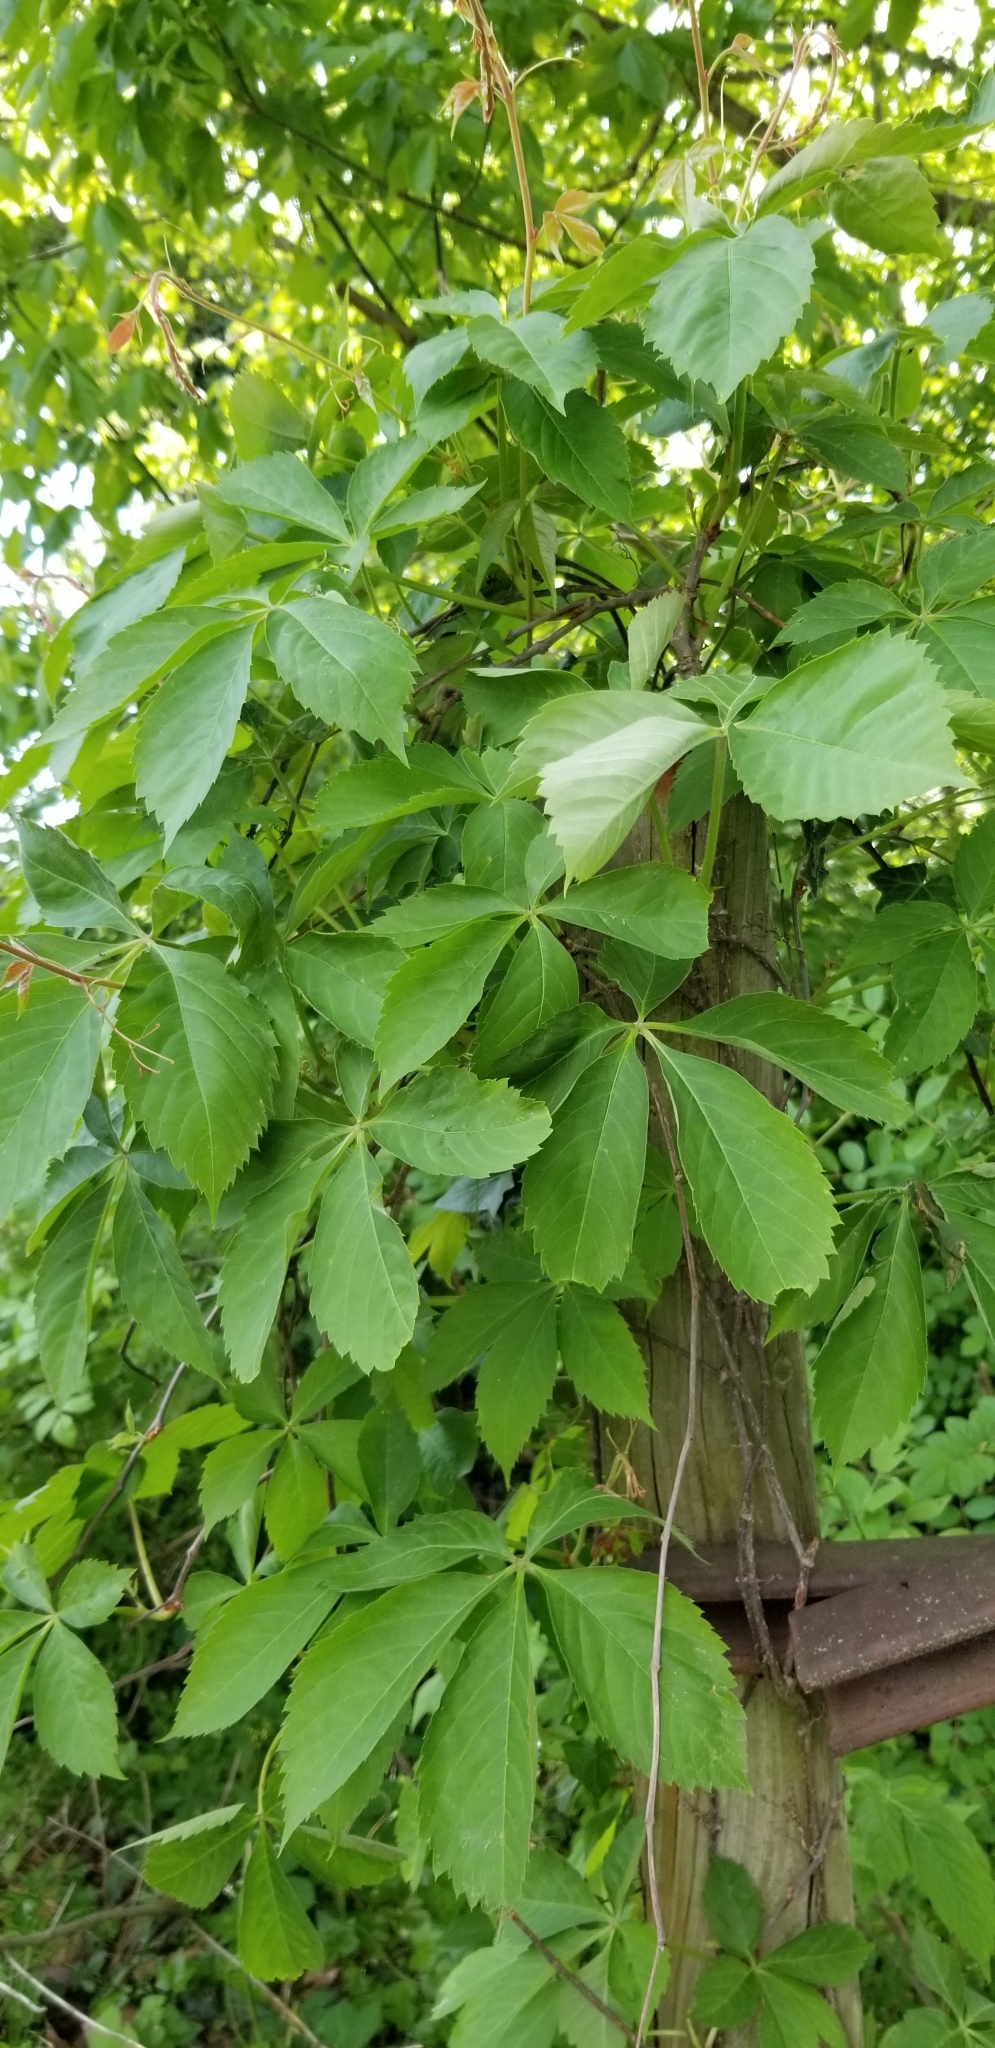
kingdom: Plantae
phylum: Tracheophyta
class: Magnoliopsida
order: Vitales
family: Vitaceae
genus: Parthenocissus
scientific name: Parthenocissus quinquefolia
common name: Virginia-creeper
